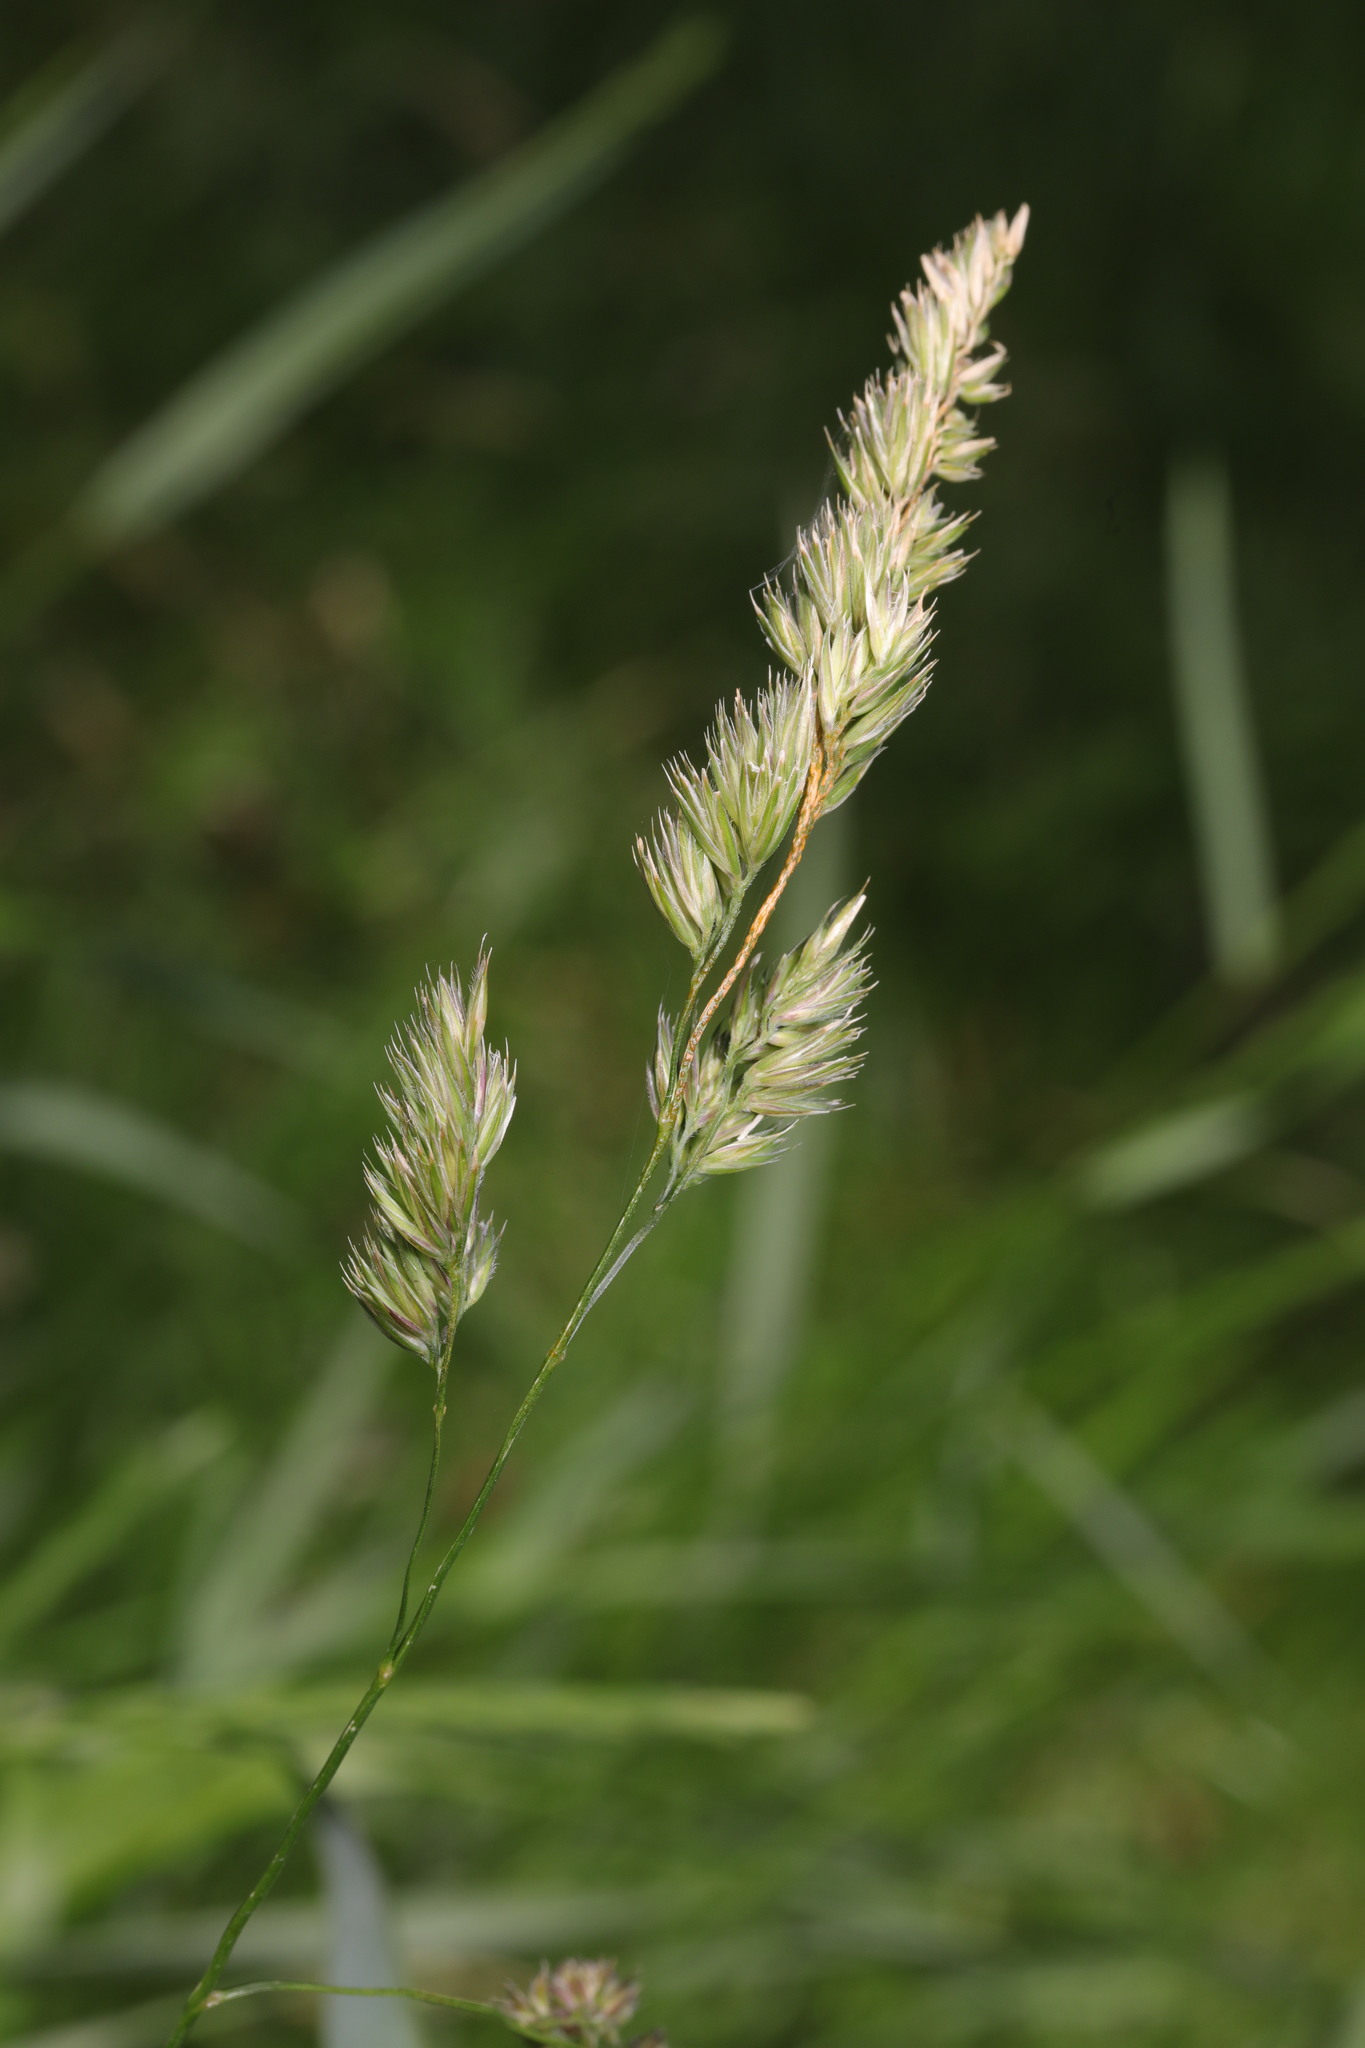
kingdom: Plantae
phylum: Tracheophyta
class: Liliopsida
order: Poales
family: Poaceae
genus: Dactylis
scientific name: Dactylis glomerata
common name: Orchardgrass
